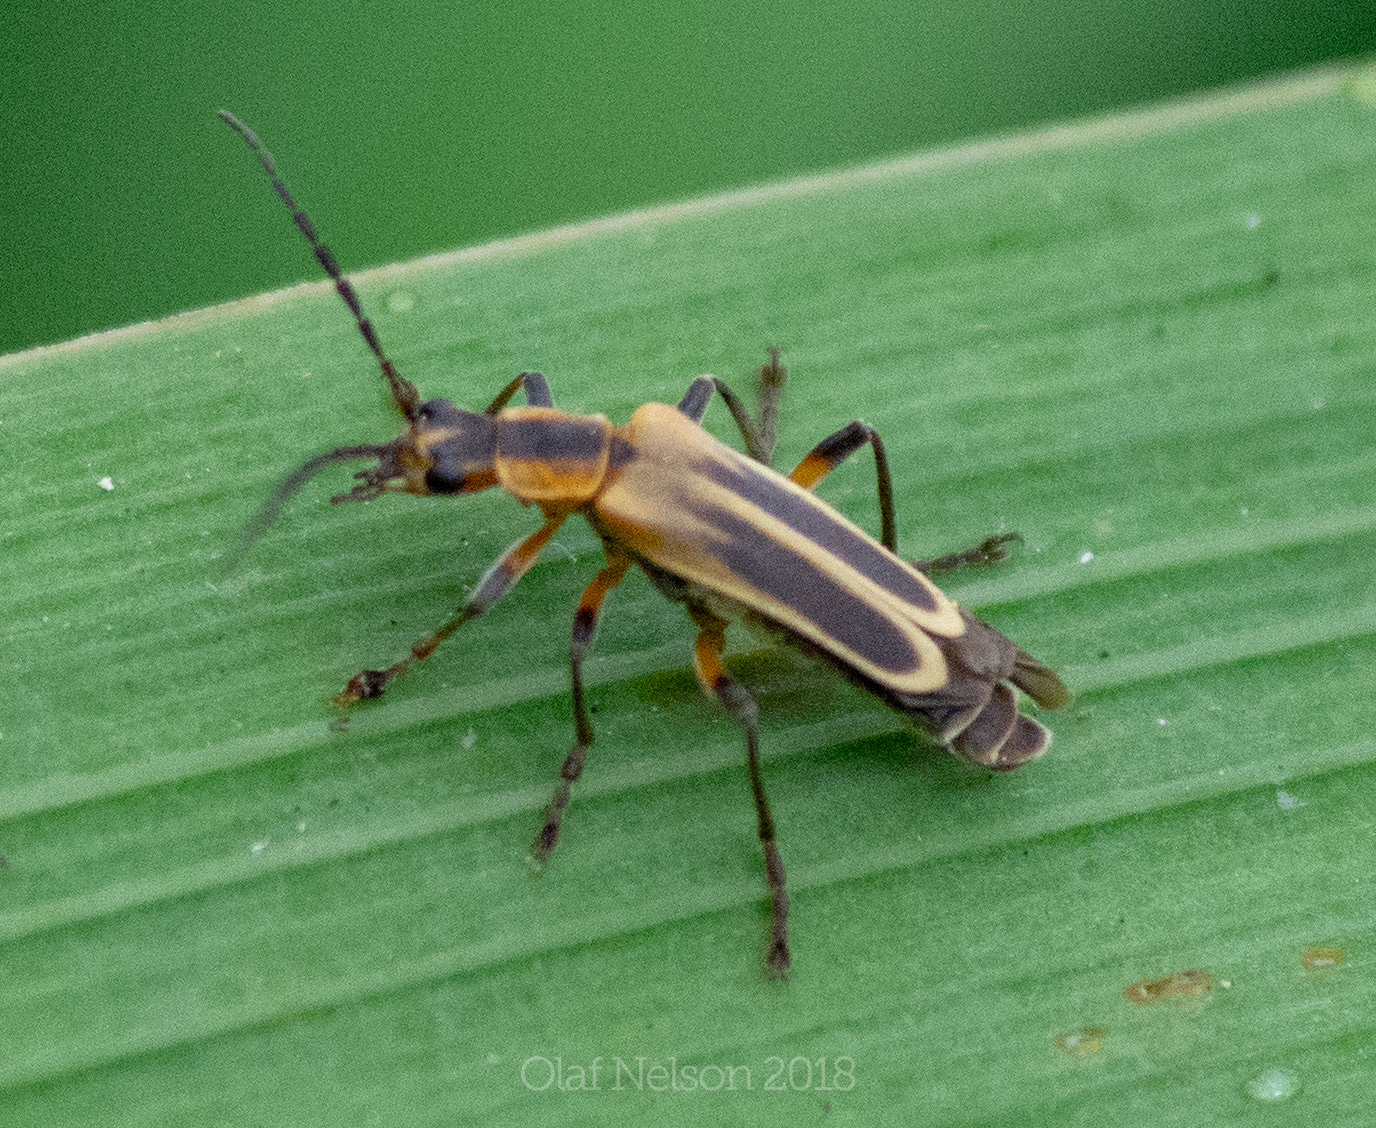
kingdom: Animalia
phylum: Arthropoda
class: Insecta
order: Coleoptera
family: Cantharidae
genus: Chauliognathus
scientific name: Chauliognathus marginatus
